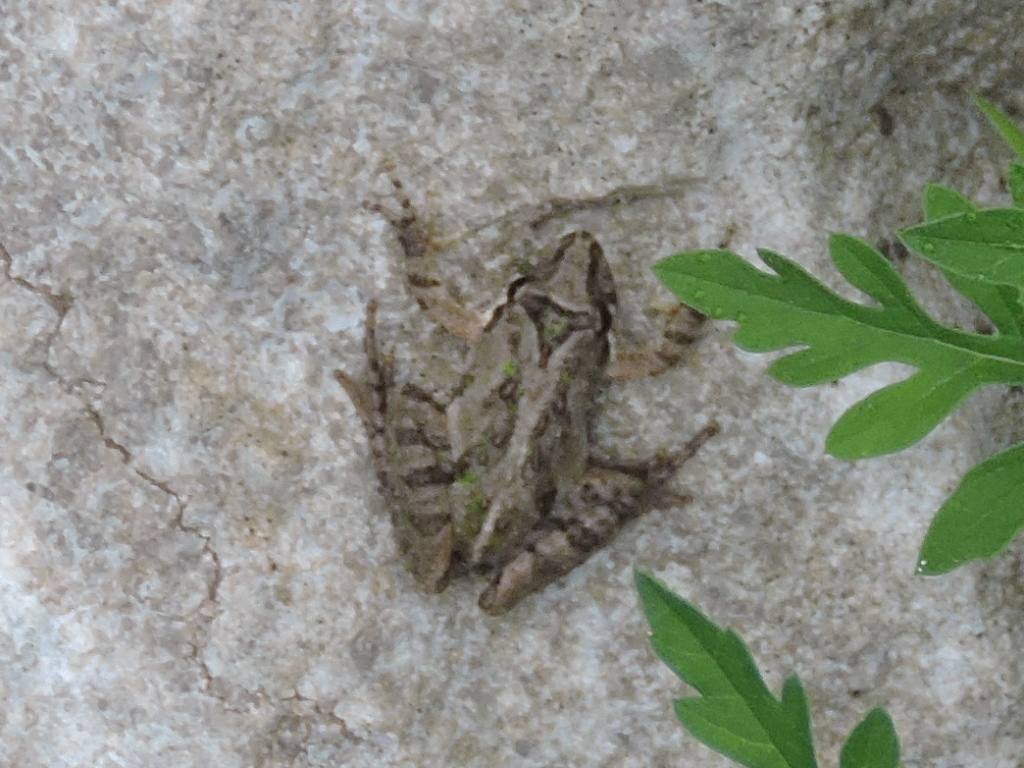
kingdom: Animalia
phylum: Chordata
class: Amphibia
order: Anura
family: Hylidae
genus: Acris
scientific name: Acris gryllus
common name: Southern cricket frog
